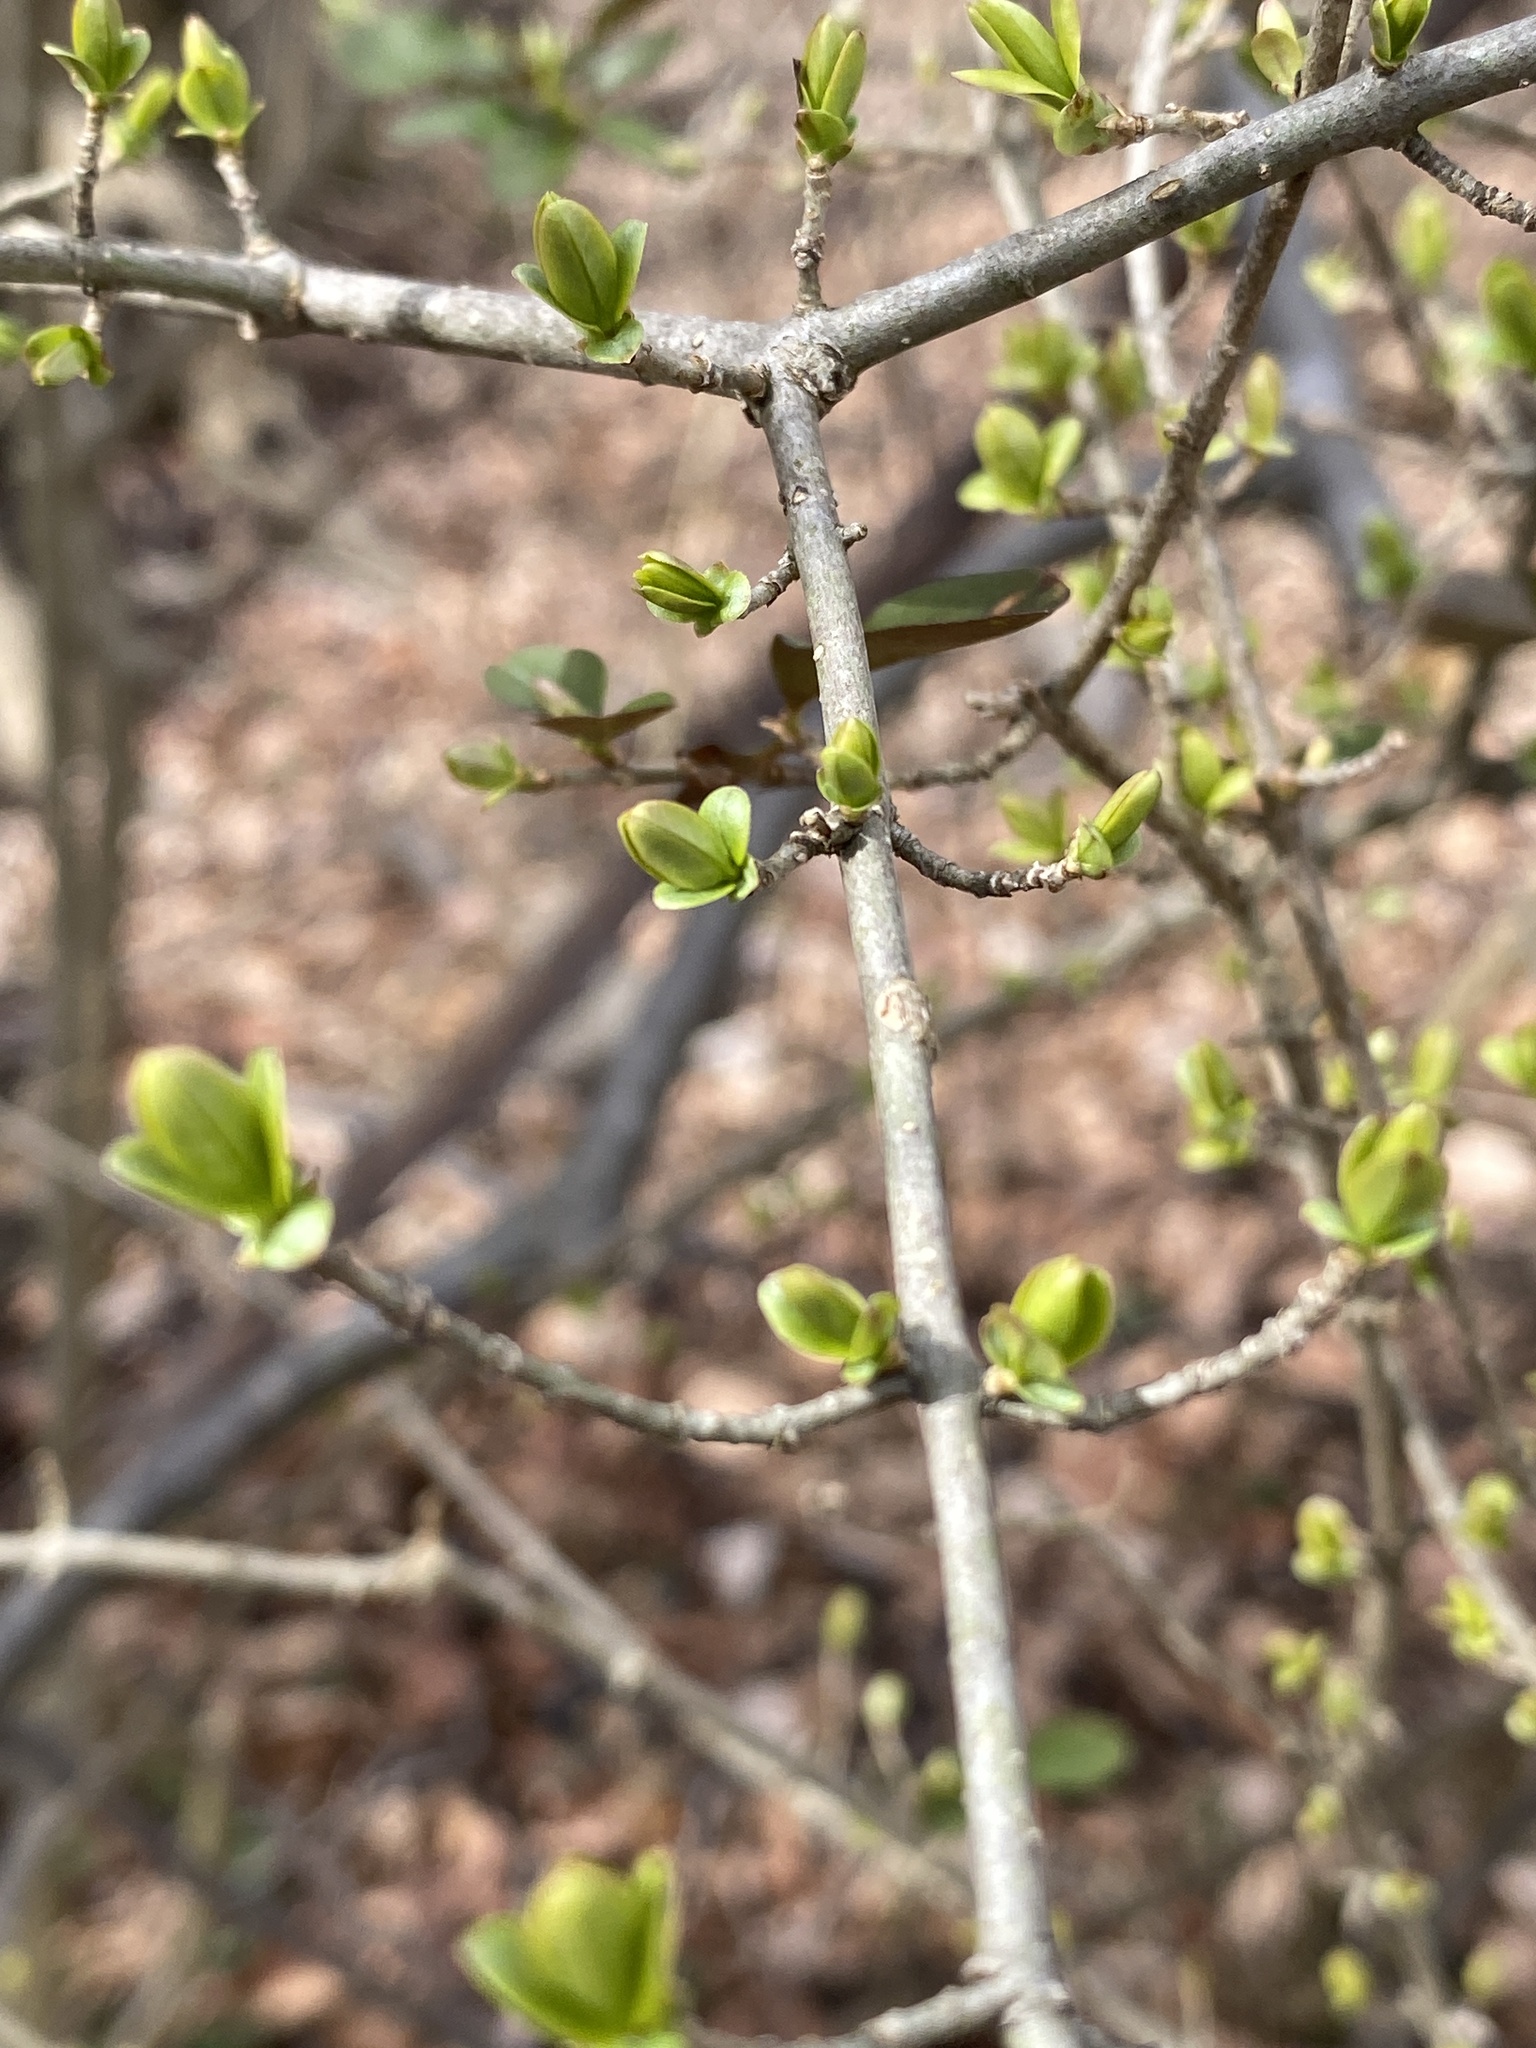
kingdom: Plantae
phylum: Tracheophyta
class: Magnoliopsida
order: Lamiales
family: Oleaceae
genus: Ligustrum
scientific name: Ligustrum obtusifolium
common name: Border privet
